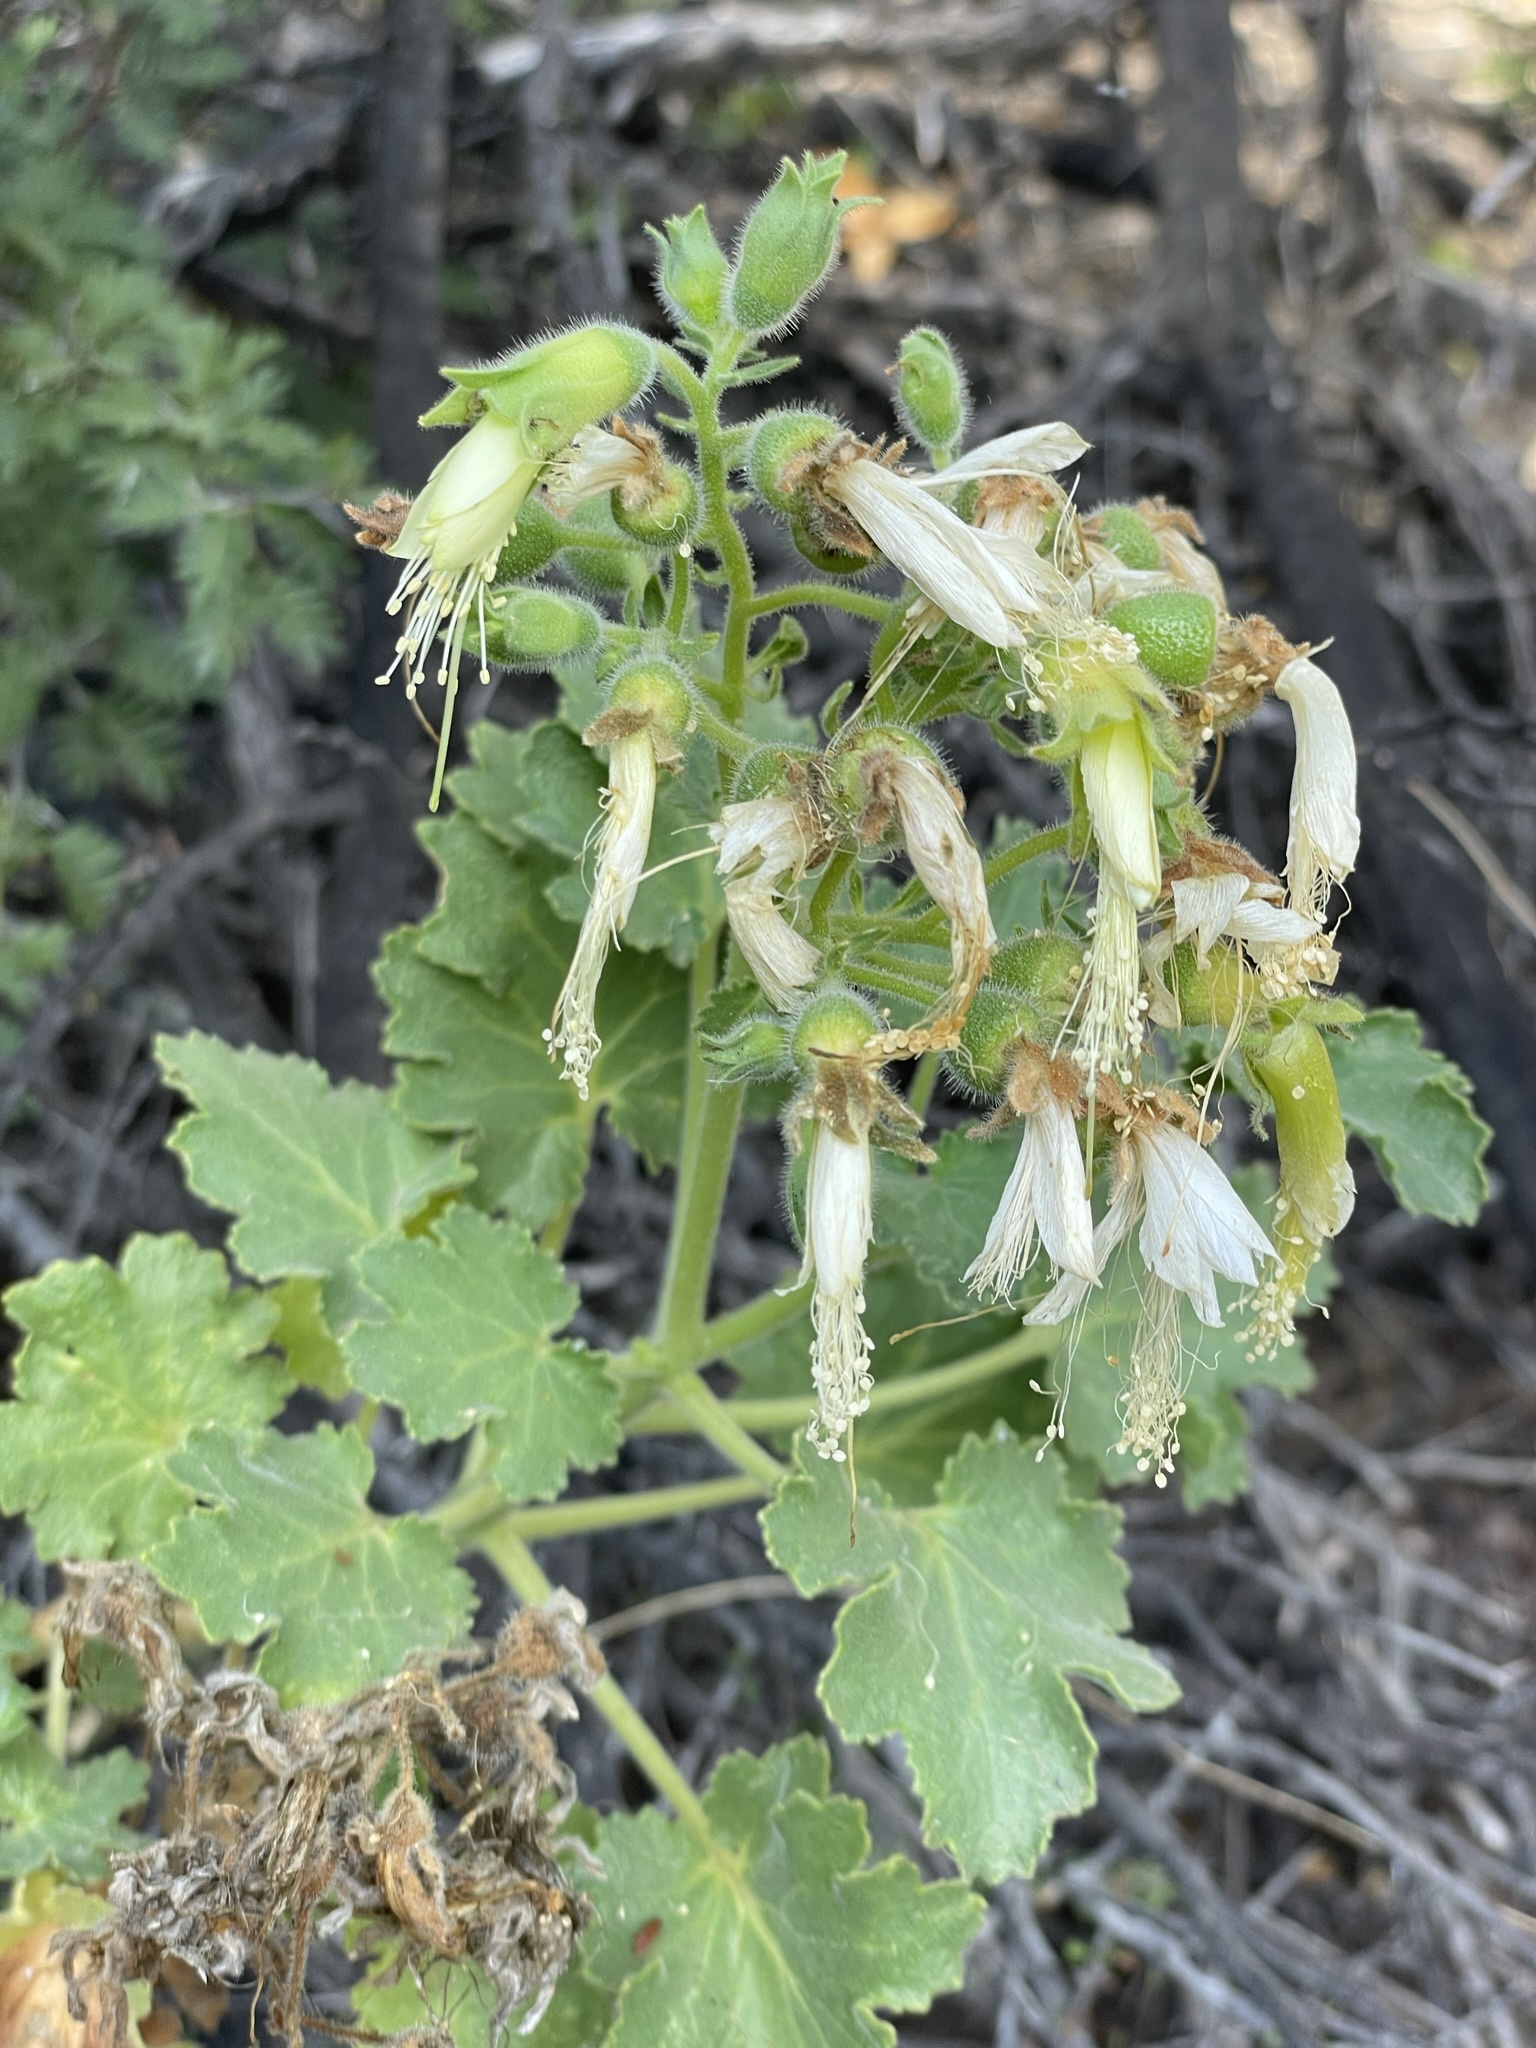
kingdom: Plantae
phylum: Tracheophyta
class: Magnoliopsida
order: Cornales
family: Loasaceae
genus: Eucnide
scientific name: Eucnide cordata
